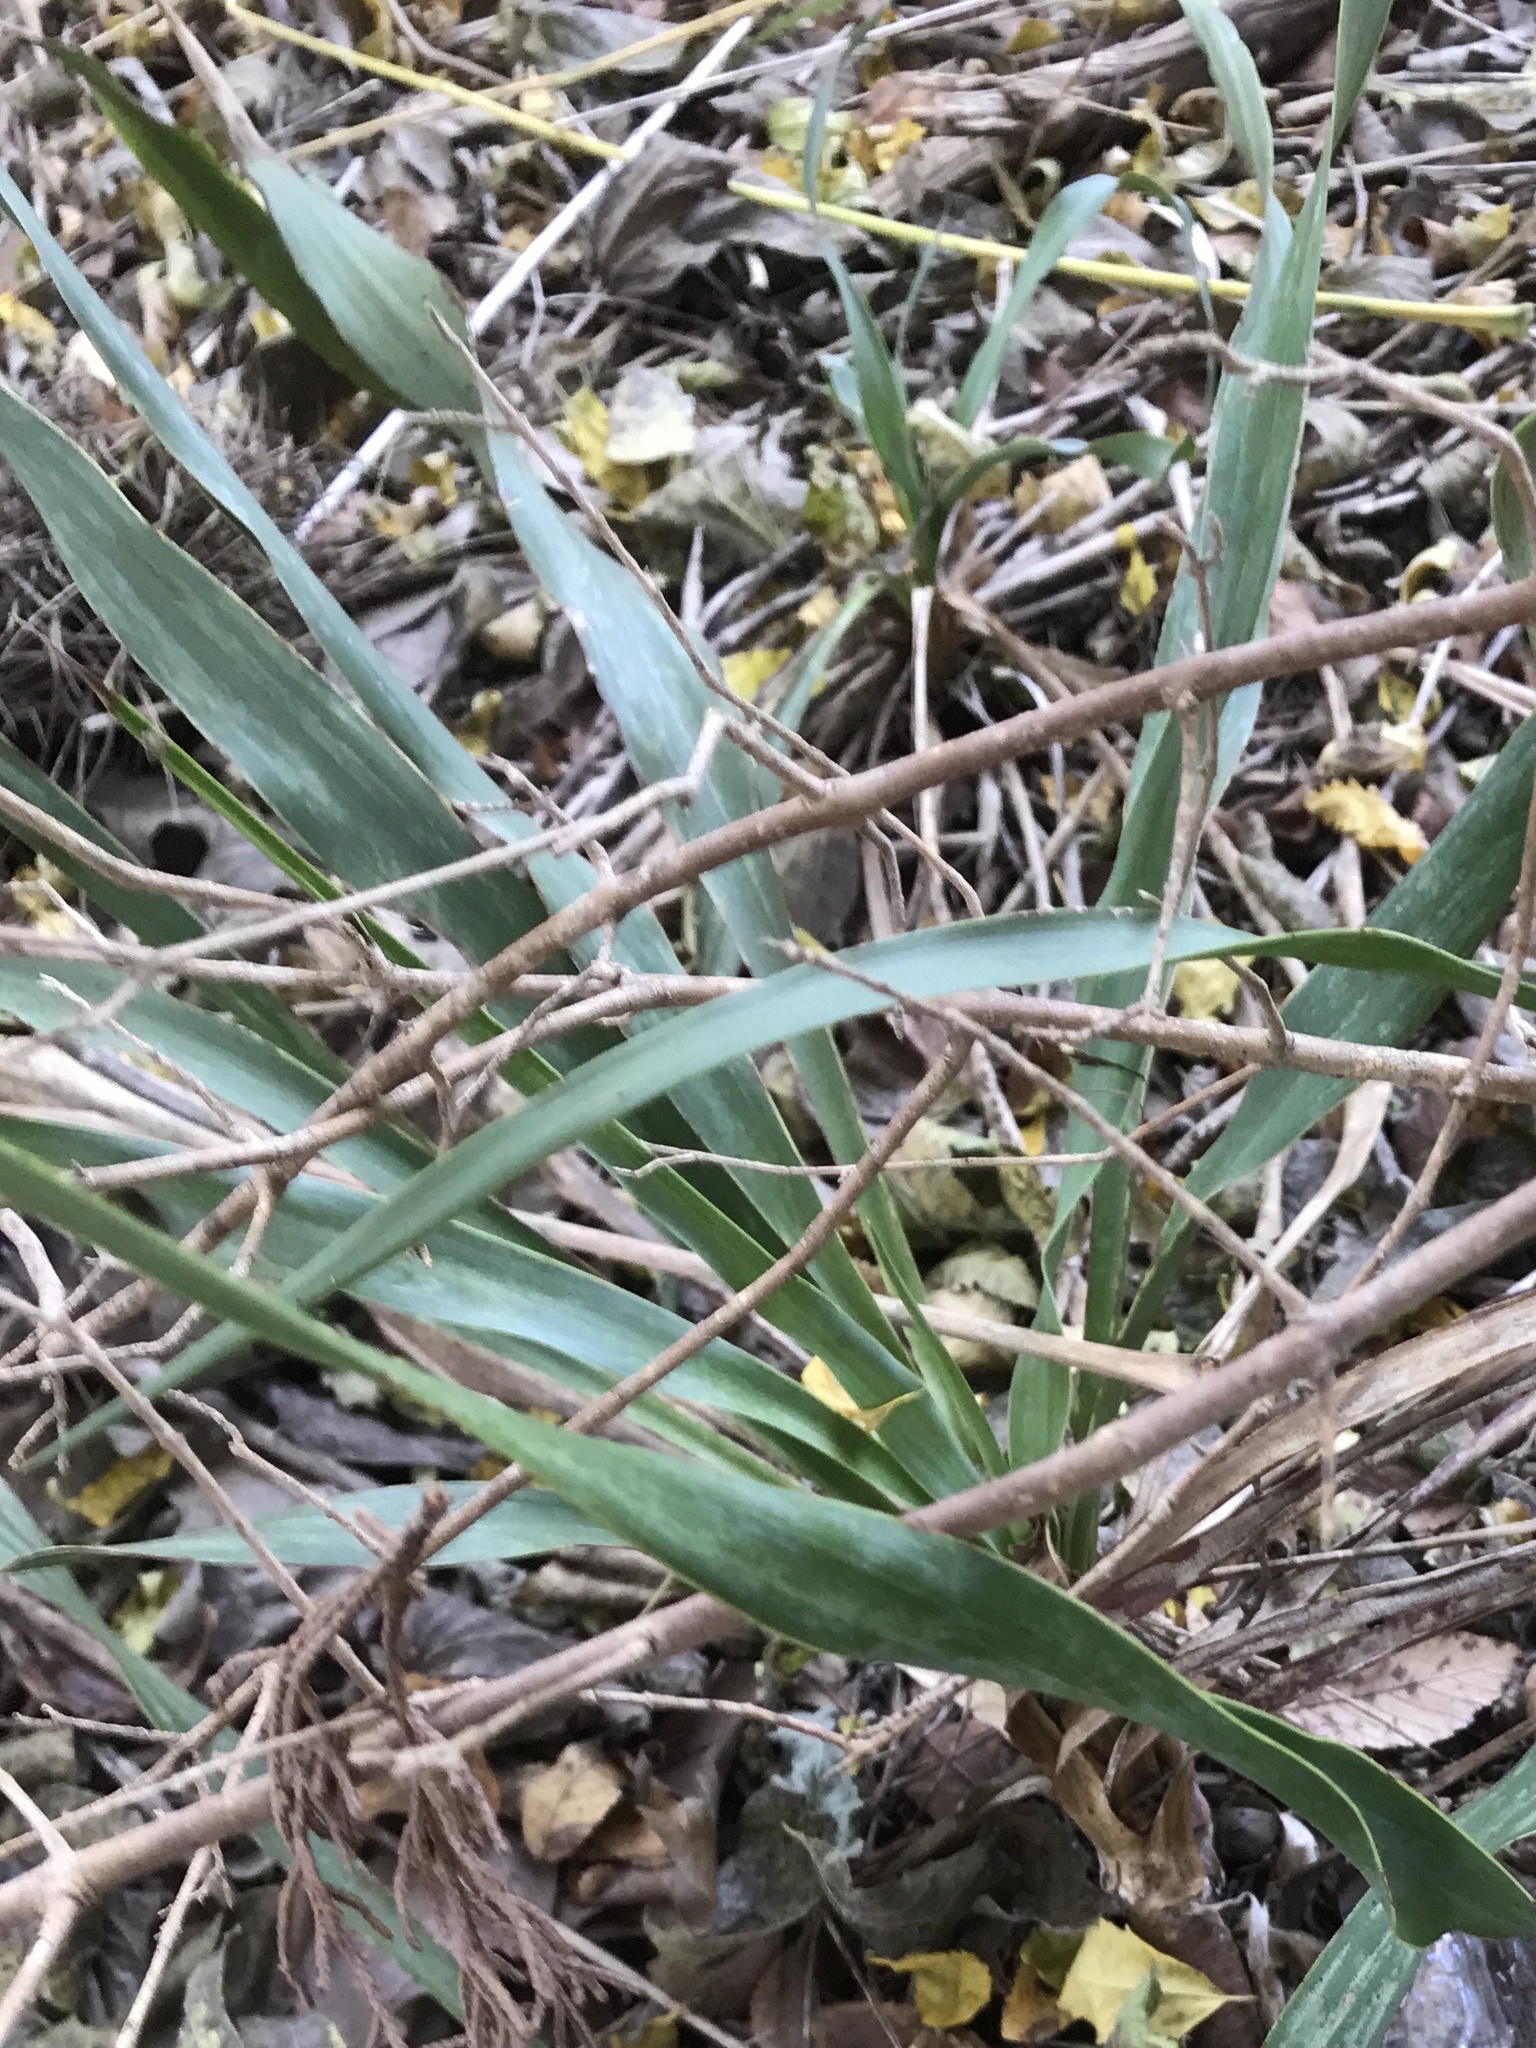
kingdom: Plantae
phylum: Tracheophyta
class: Liliopsida
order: Asparagales
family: Asparagaceae
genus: Yucca
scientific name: Yucca rupicola
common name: Twisted-leaf spanish-dagger
